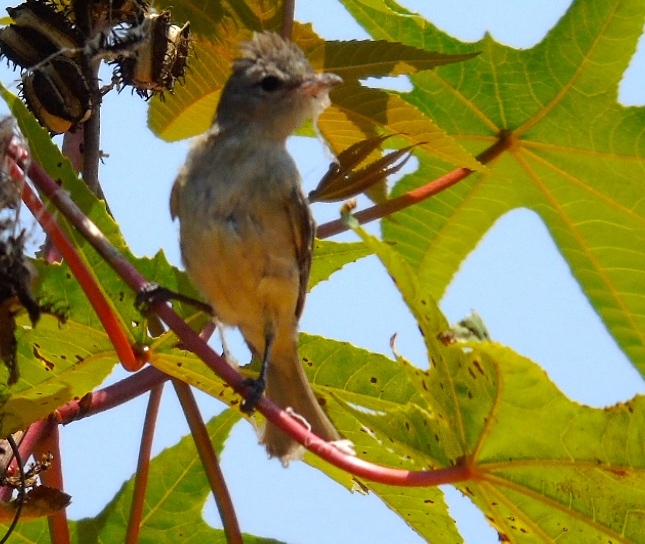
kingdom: Animalia
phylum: Chordata
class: Aves
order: Passeriformes
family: Tyrannidae
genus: Camptostoma
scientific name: Camptostoma imberbe
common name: Northern beardless-tyrannulet
